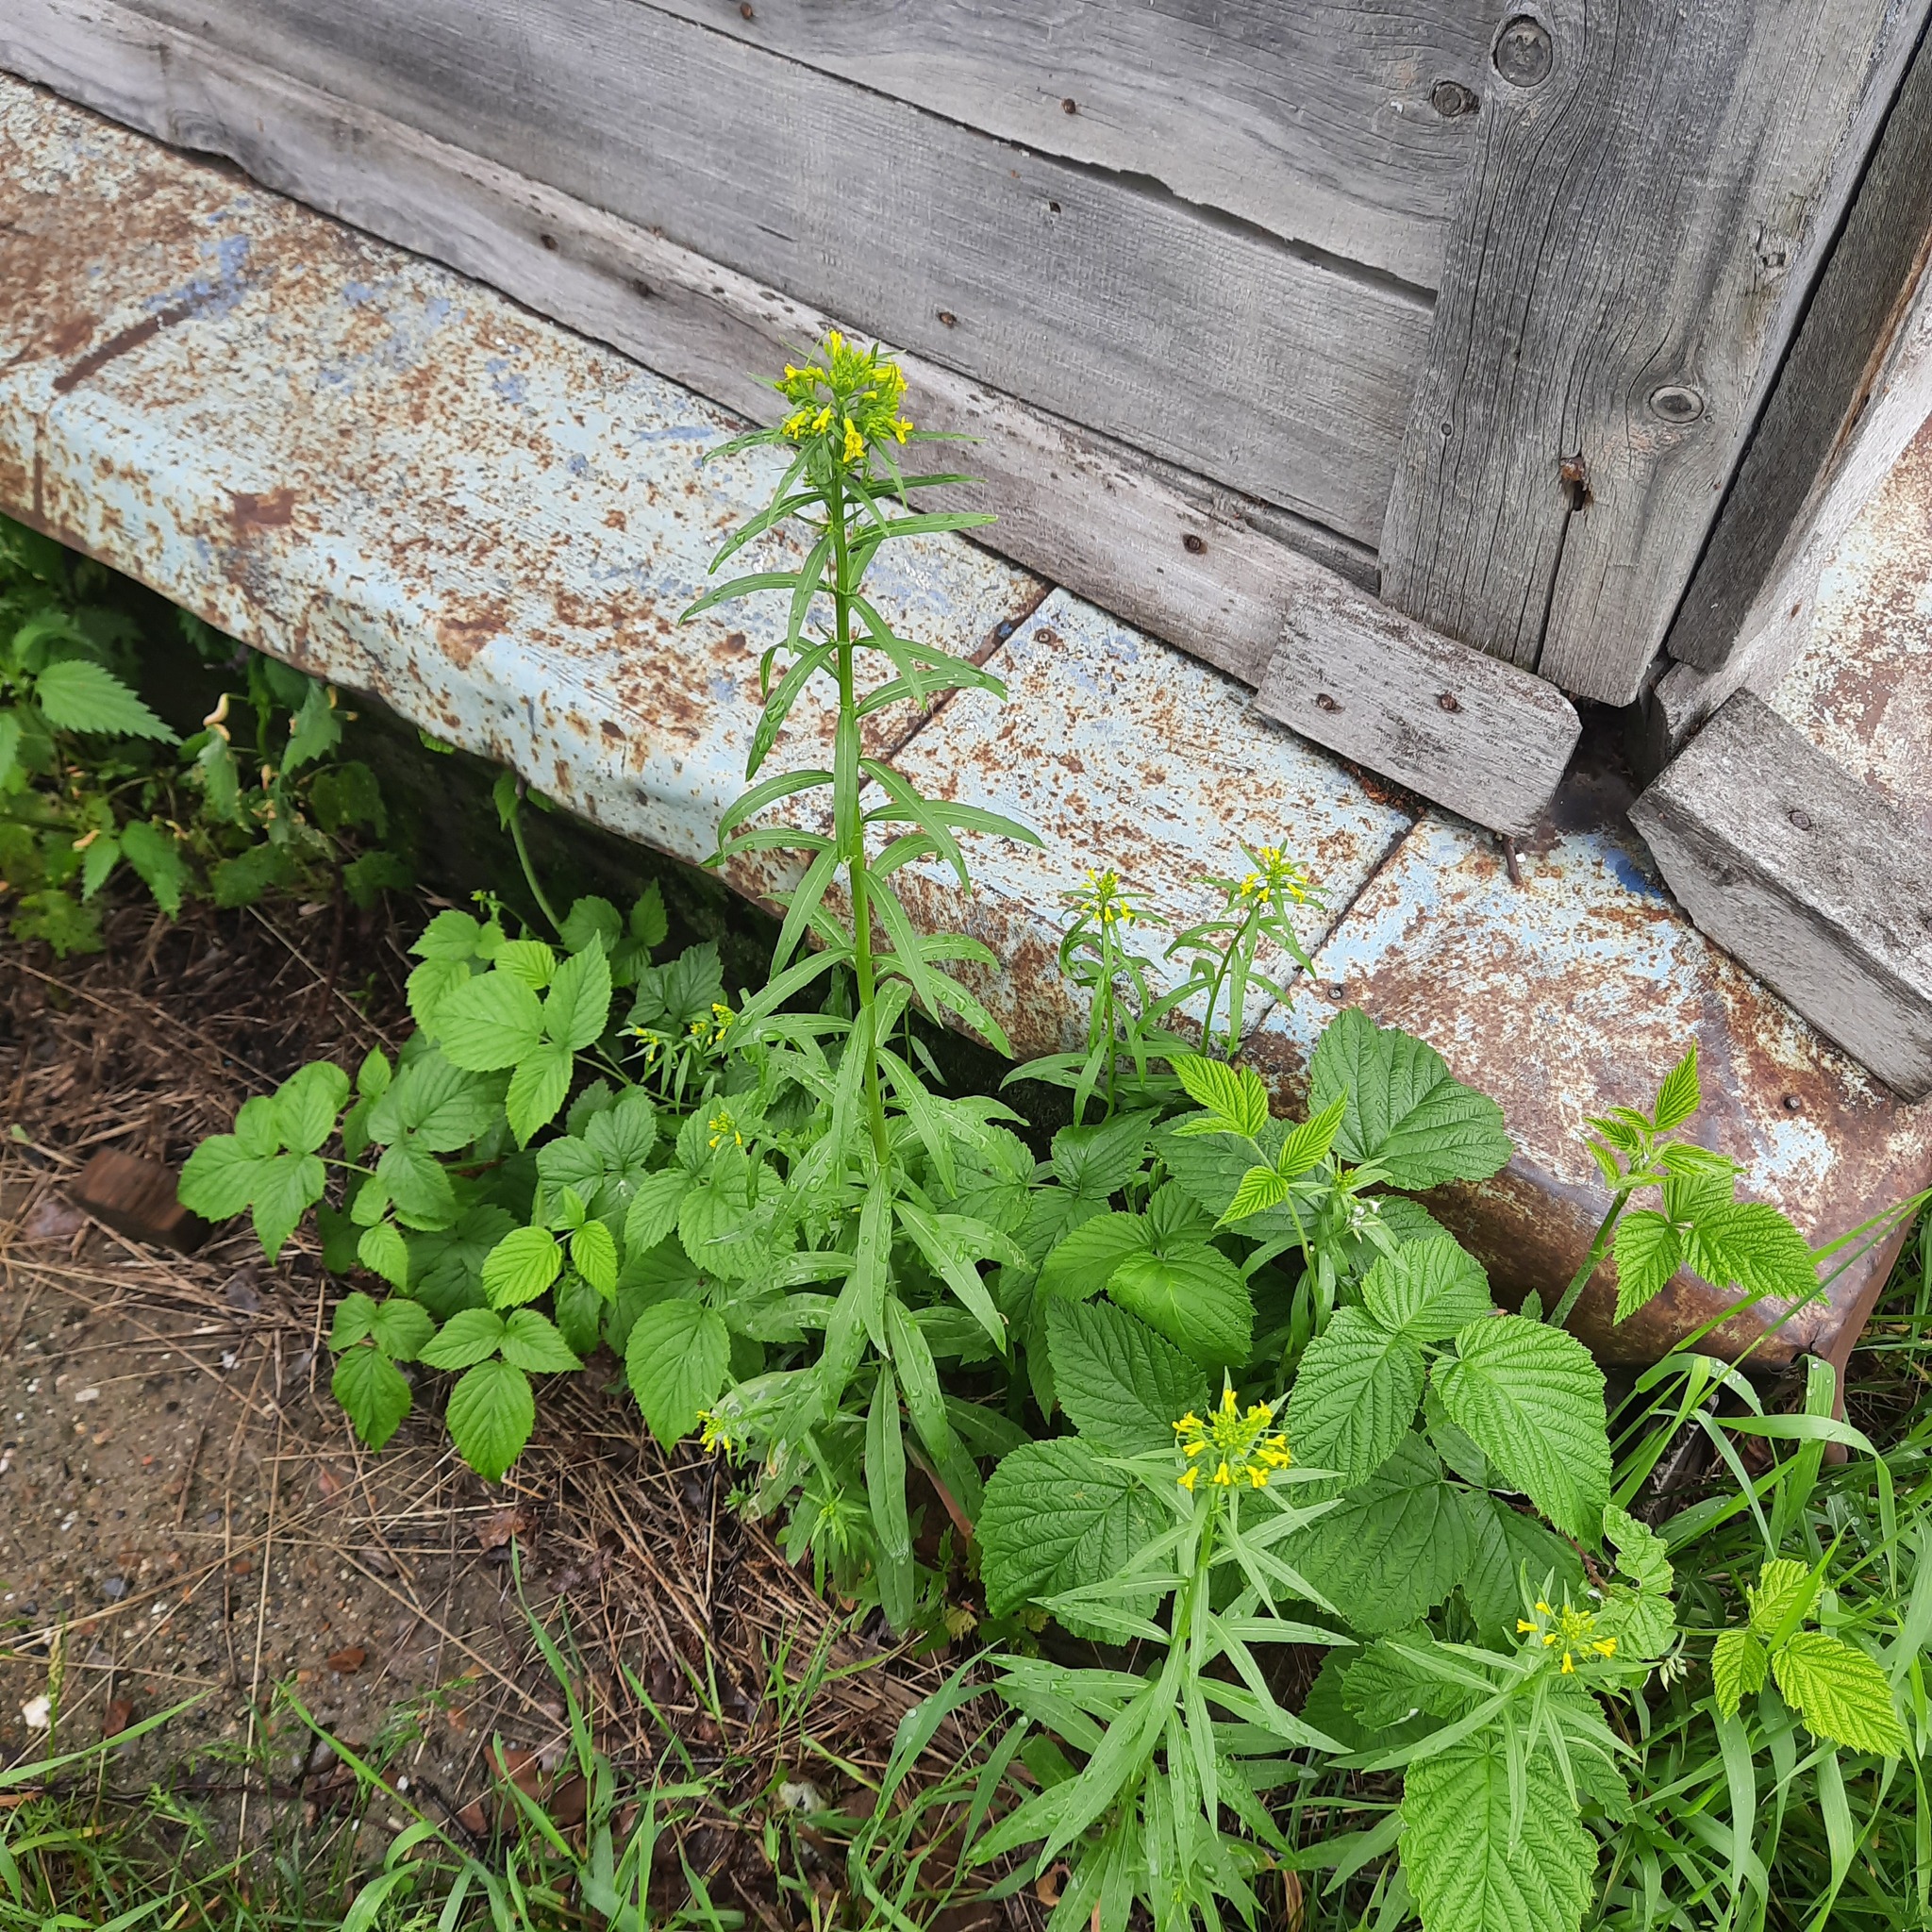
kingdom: Plantae
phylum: Tracheophyta
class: Magnoliopsida
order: Brassicales
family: Brassicaceae
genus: Erysimum
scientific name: Erysimum cheiranthoides
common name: Treacle mustard
